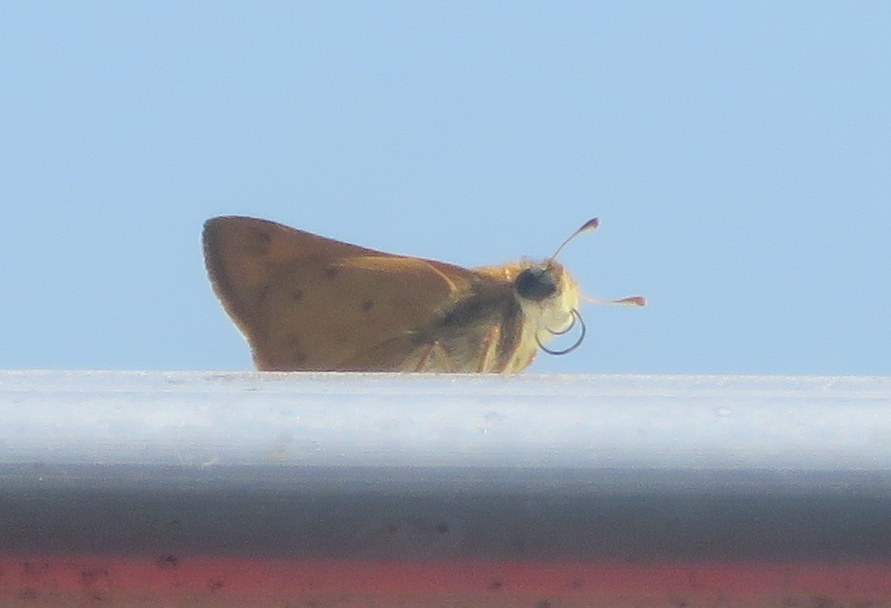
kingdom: Animalia
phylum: Arthropoda
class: Insecta
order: Lepidoptera
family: Hesperiidae
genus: Hylephila
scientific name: Hylephila phyleus
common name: Fiery skipper
